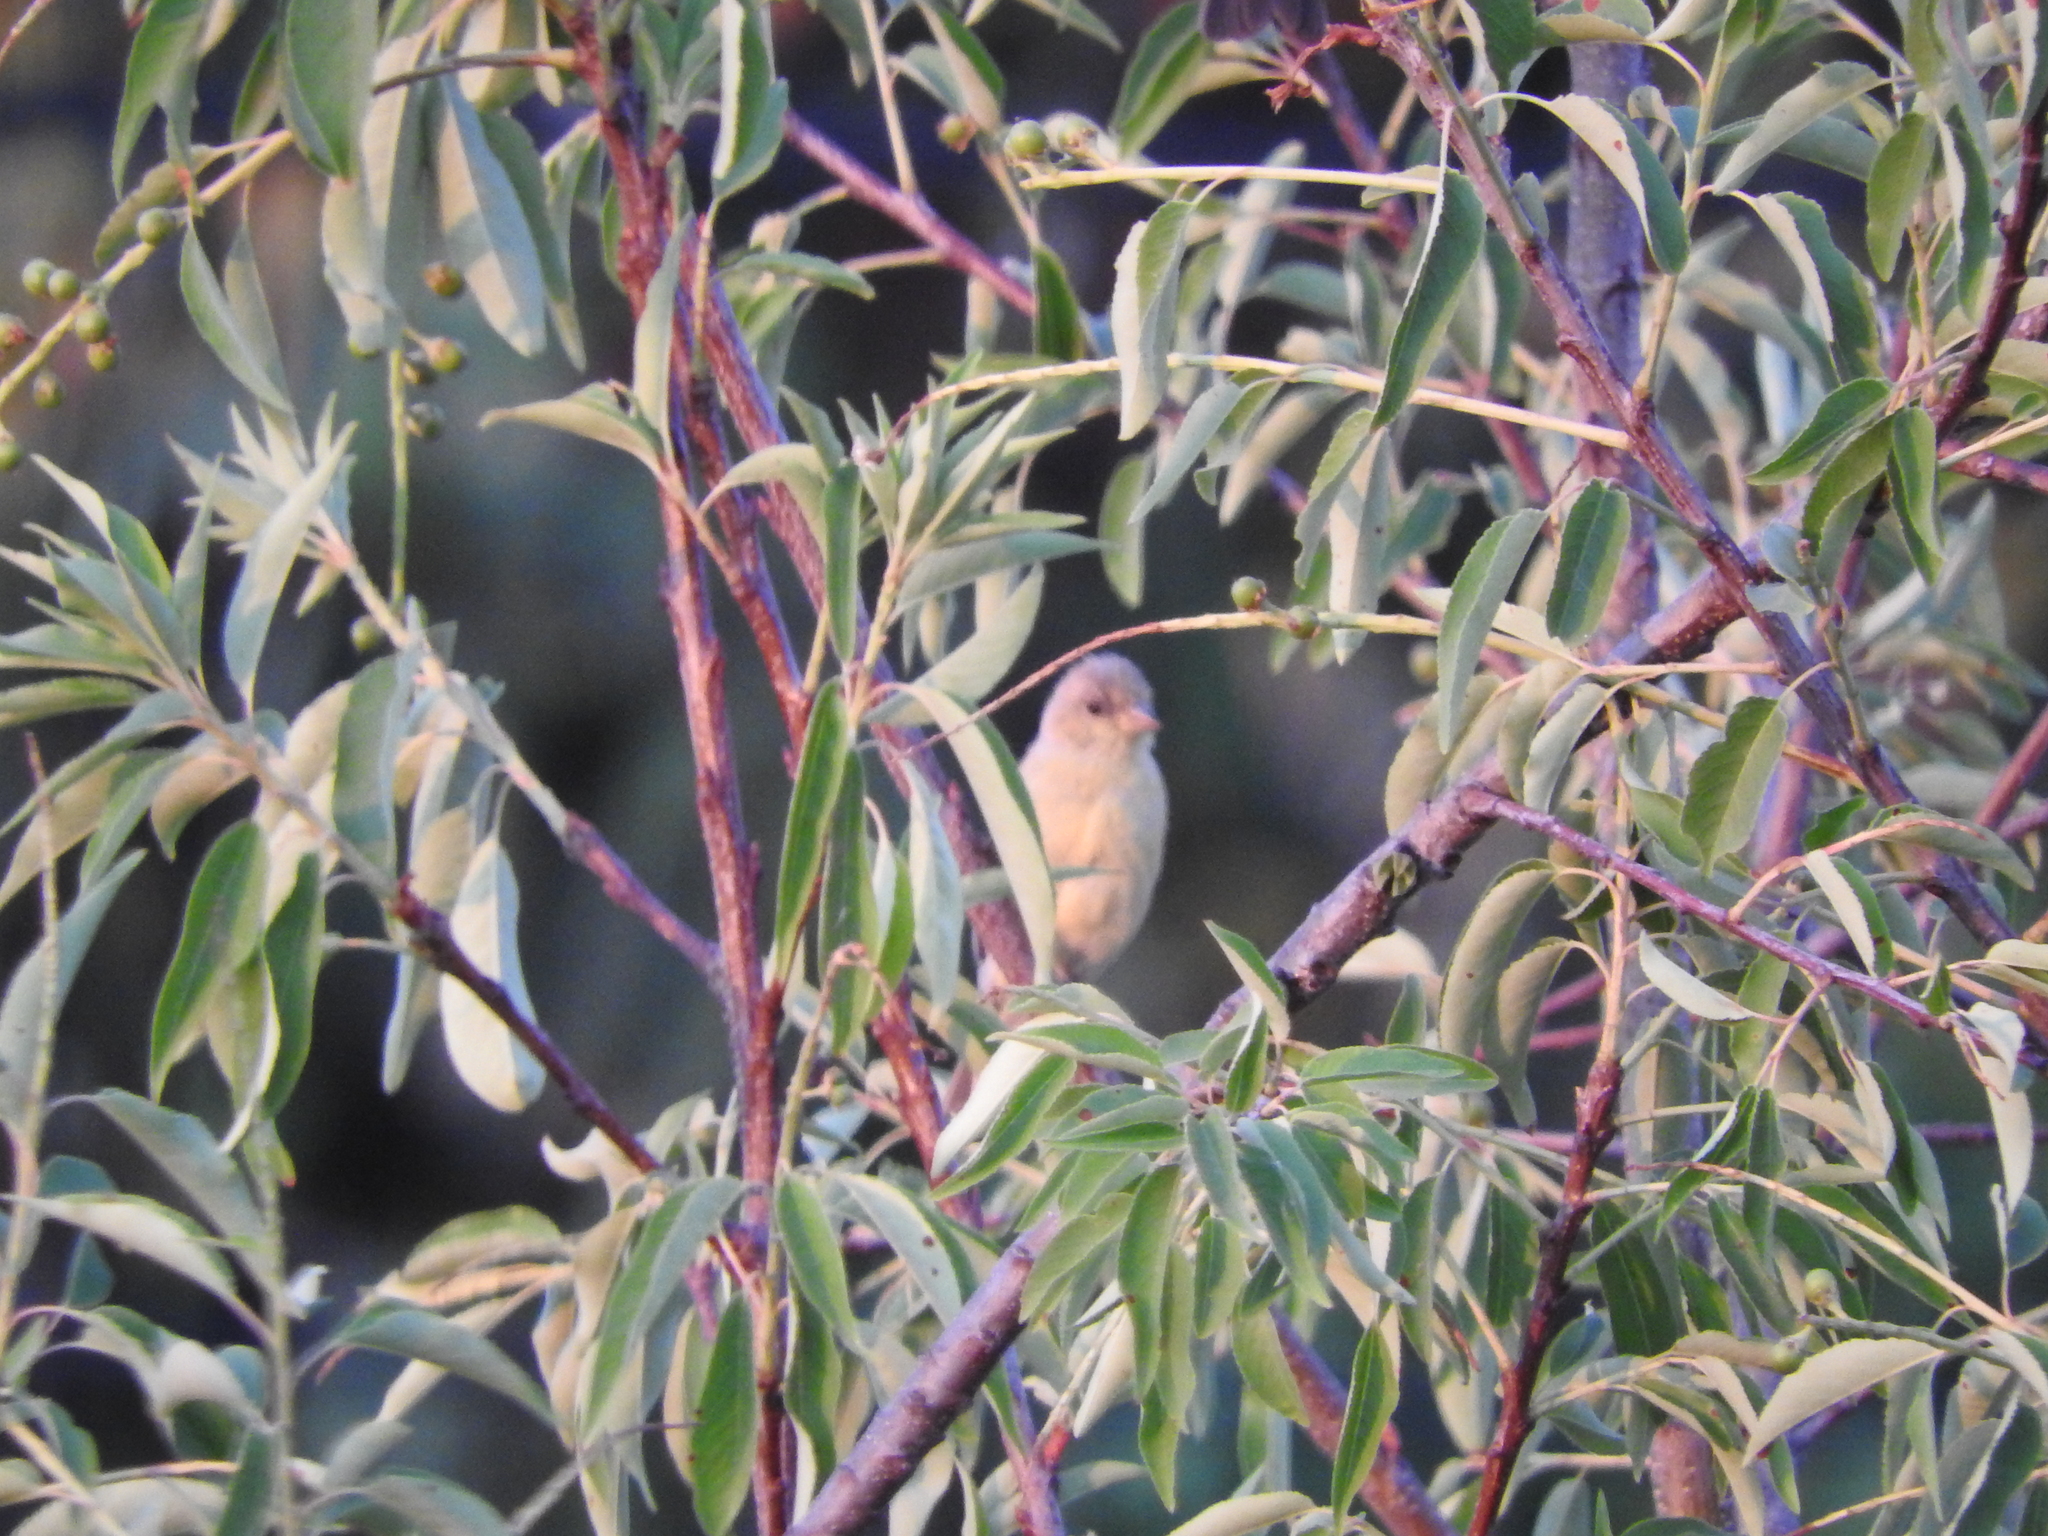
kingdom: Animalia
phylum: Chordata
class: Aves
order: Passeriformes
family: Fringillidae
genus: Spinus
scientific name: Spinus psaltria
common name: Lesser goldfinch
